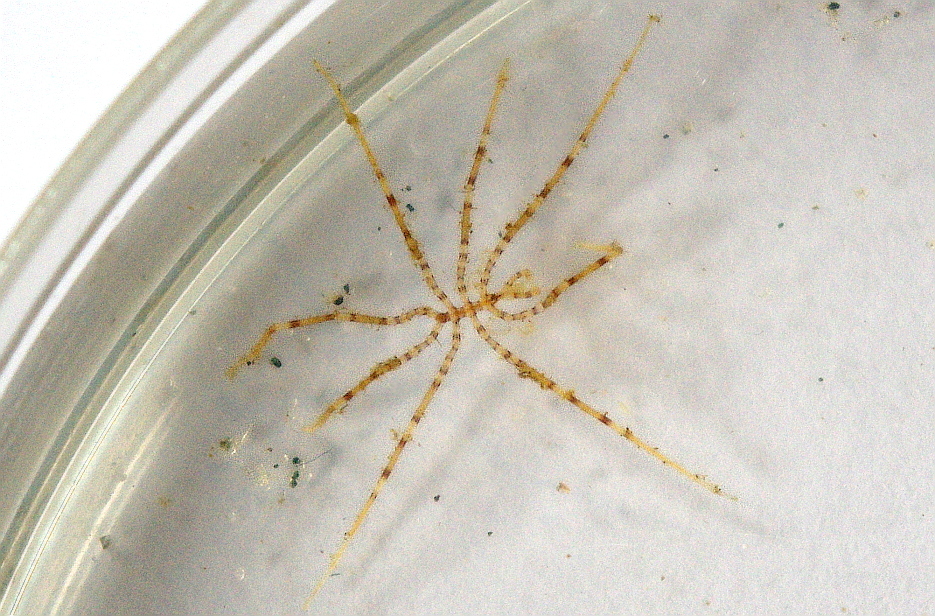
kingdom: Animalia
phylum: Arthropoda
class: Pycnogonida
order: Pantopoda
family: Nymphonidae
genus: Nymphon
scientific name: Nymphon brevirostre
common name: Elegant sea spider
